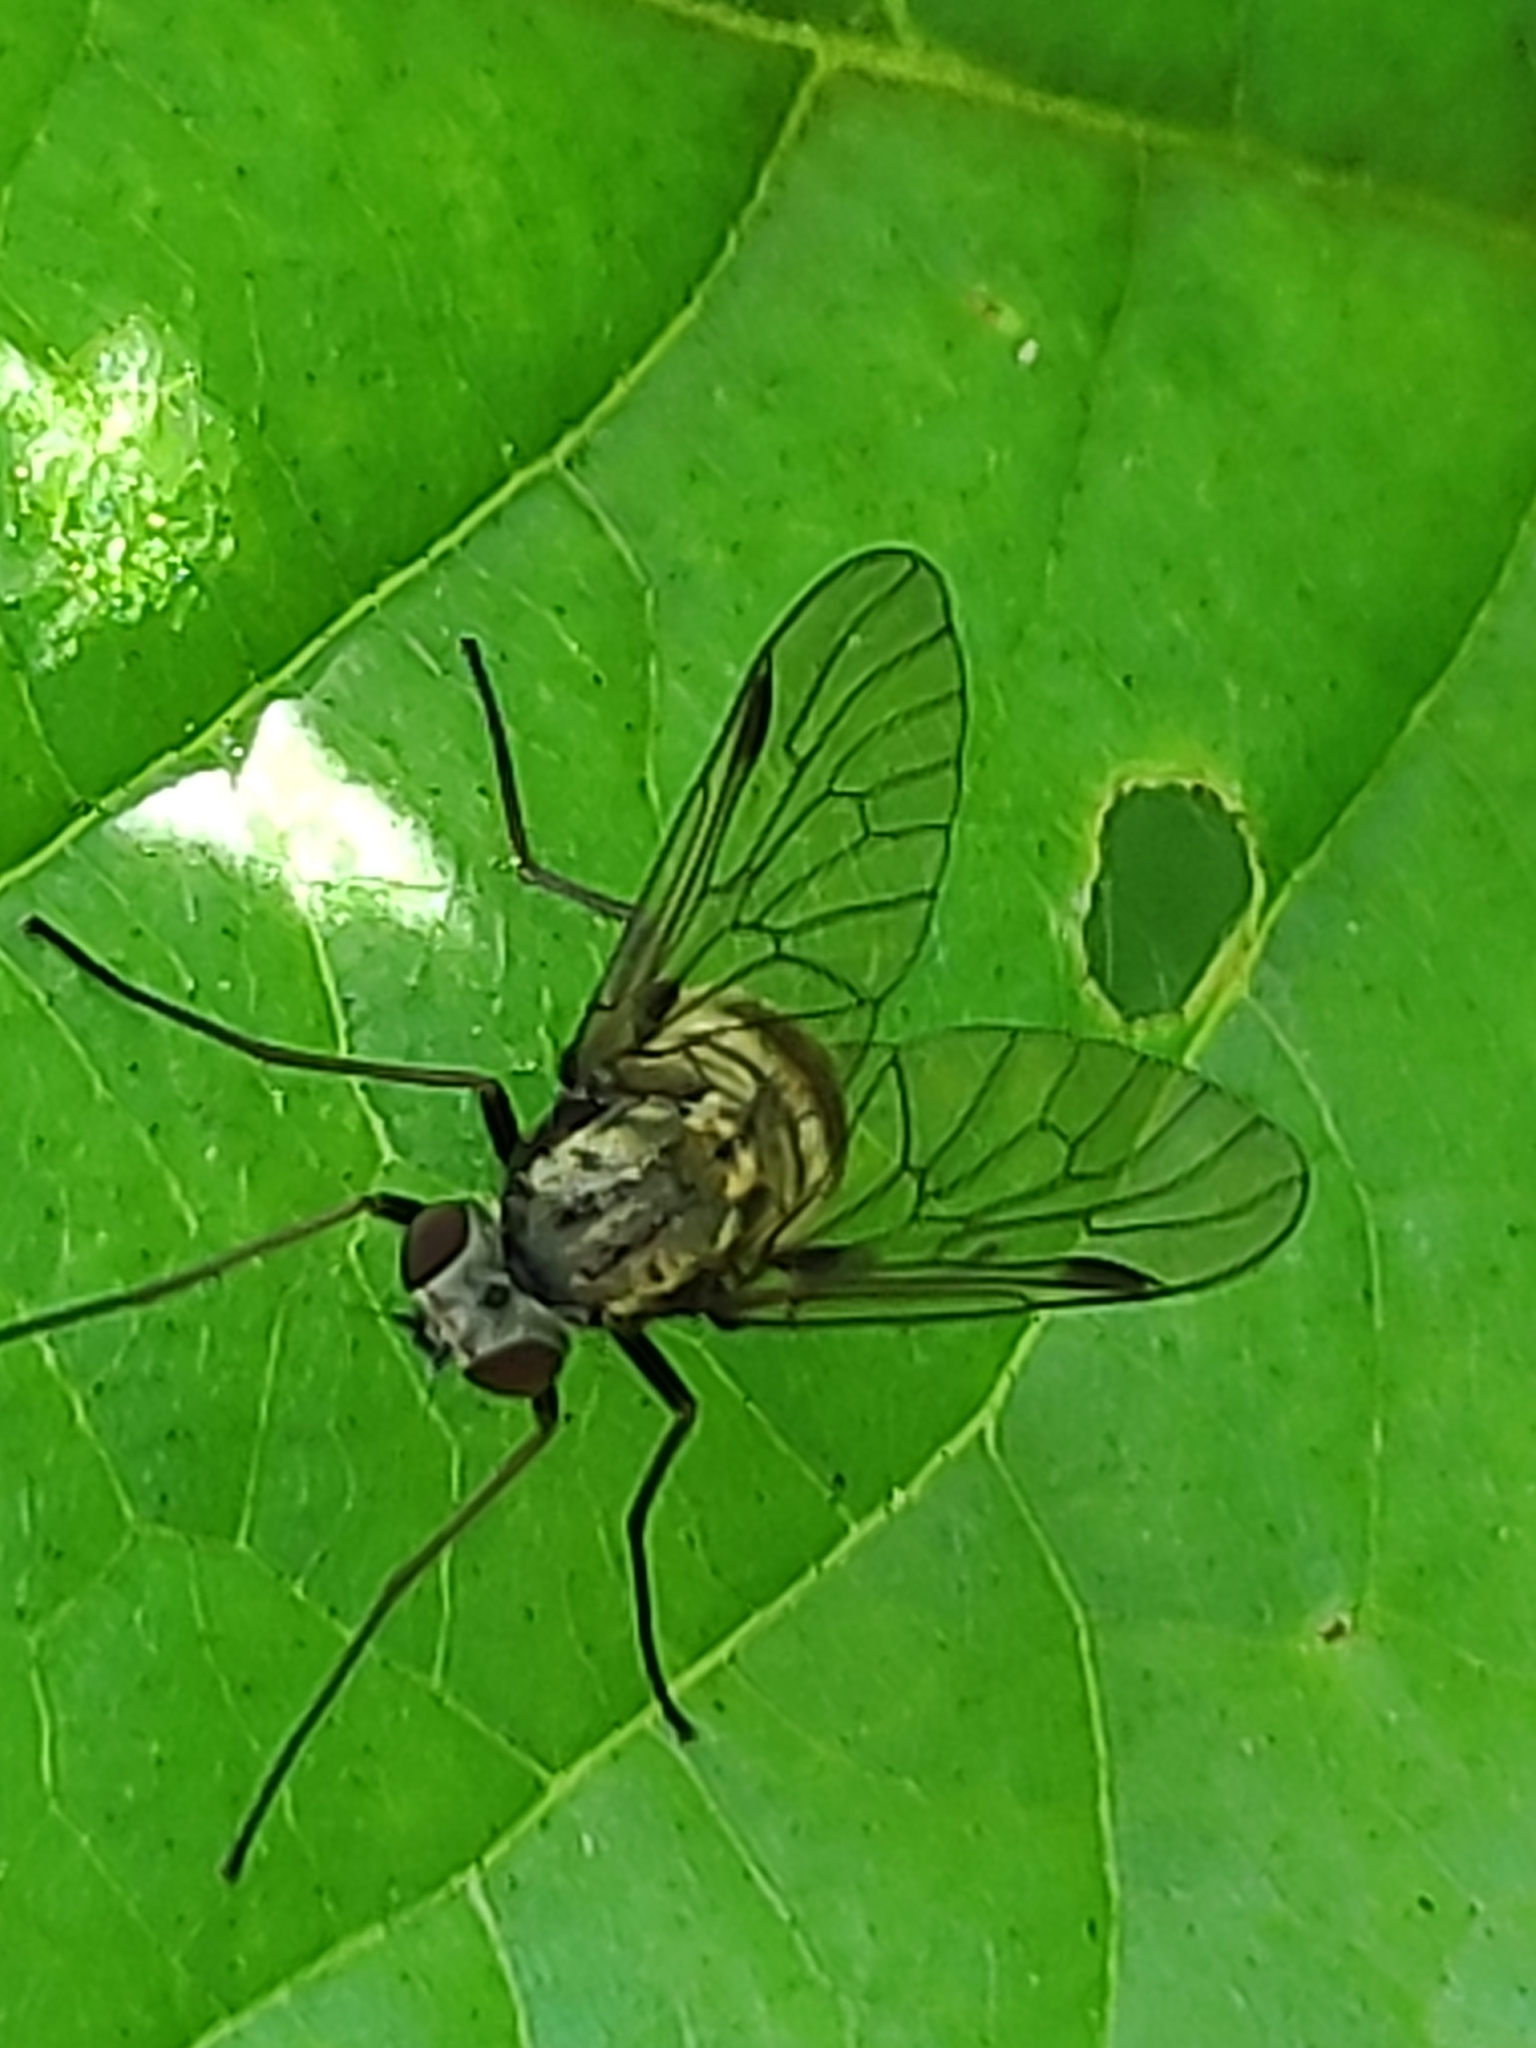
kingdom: Animalia
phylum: Arthropoda
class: Insecta
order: Diptera
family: Rhagionidae
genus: Chrysopilus
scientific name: Chrysopilus cristatus
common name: Black snipefly
